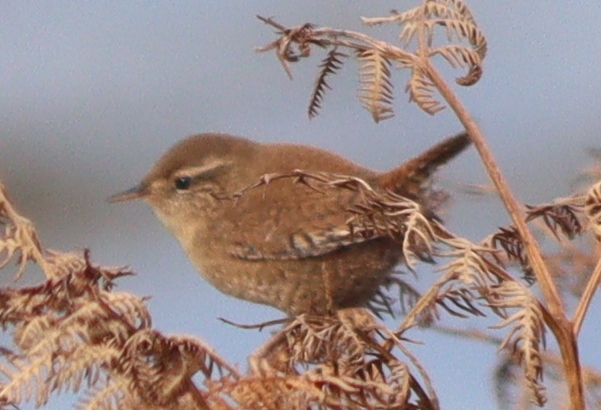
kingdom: Animalia
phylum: Chordata
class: Aves
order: Passeriformes
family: Troglodytidae
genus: Troglodytes
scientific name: Troglodytes troglodytes
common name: Eurasian wren
